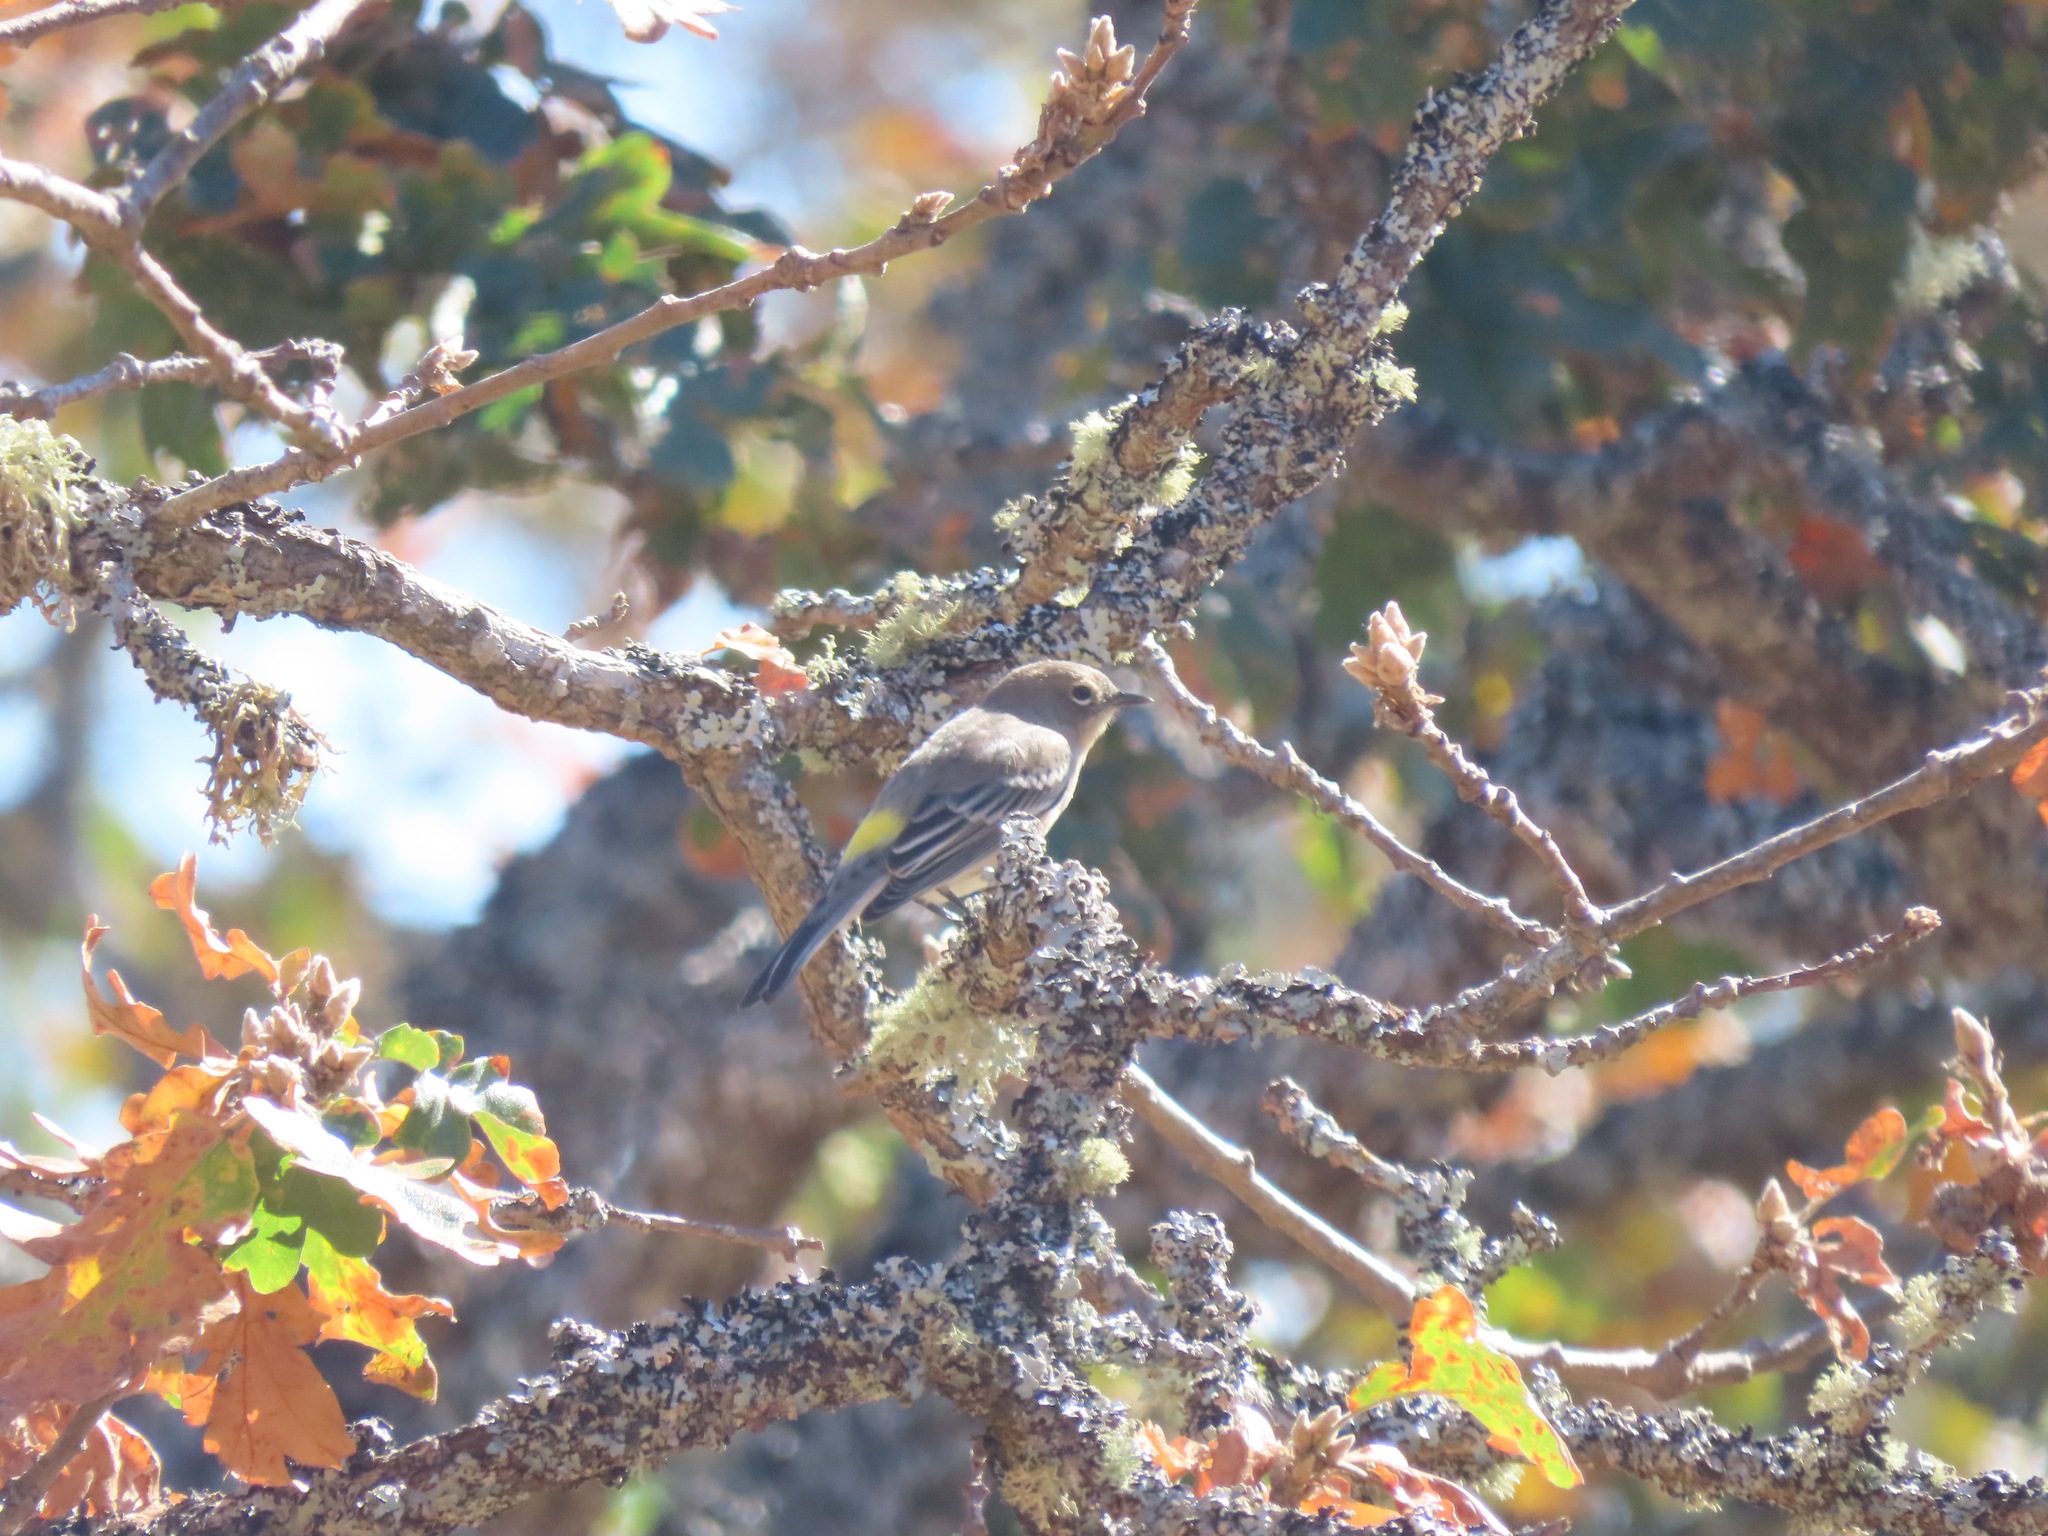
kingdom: Animalia
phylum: Chordata
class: Aves
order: Passeriformes
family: Parulidae
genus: Setophaga
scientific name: Setophaga coronata
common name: Myrtle warbler
